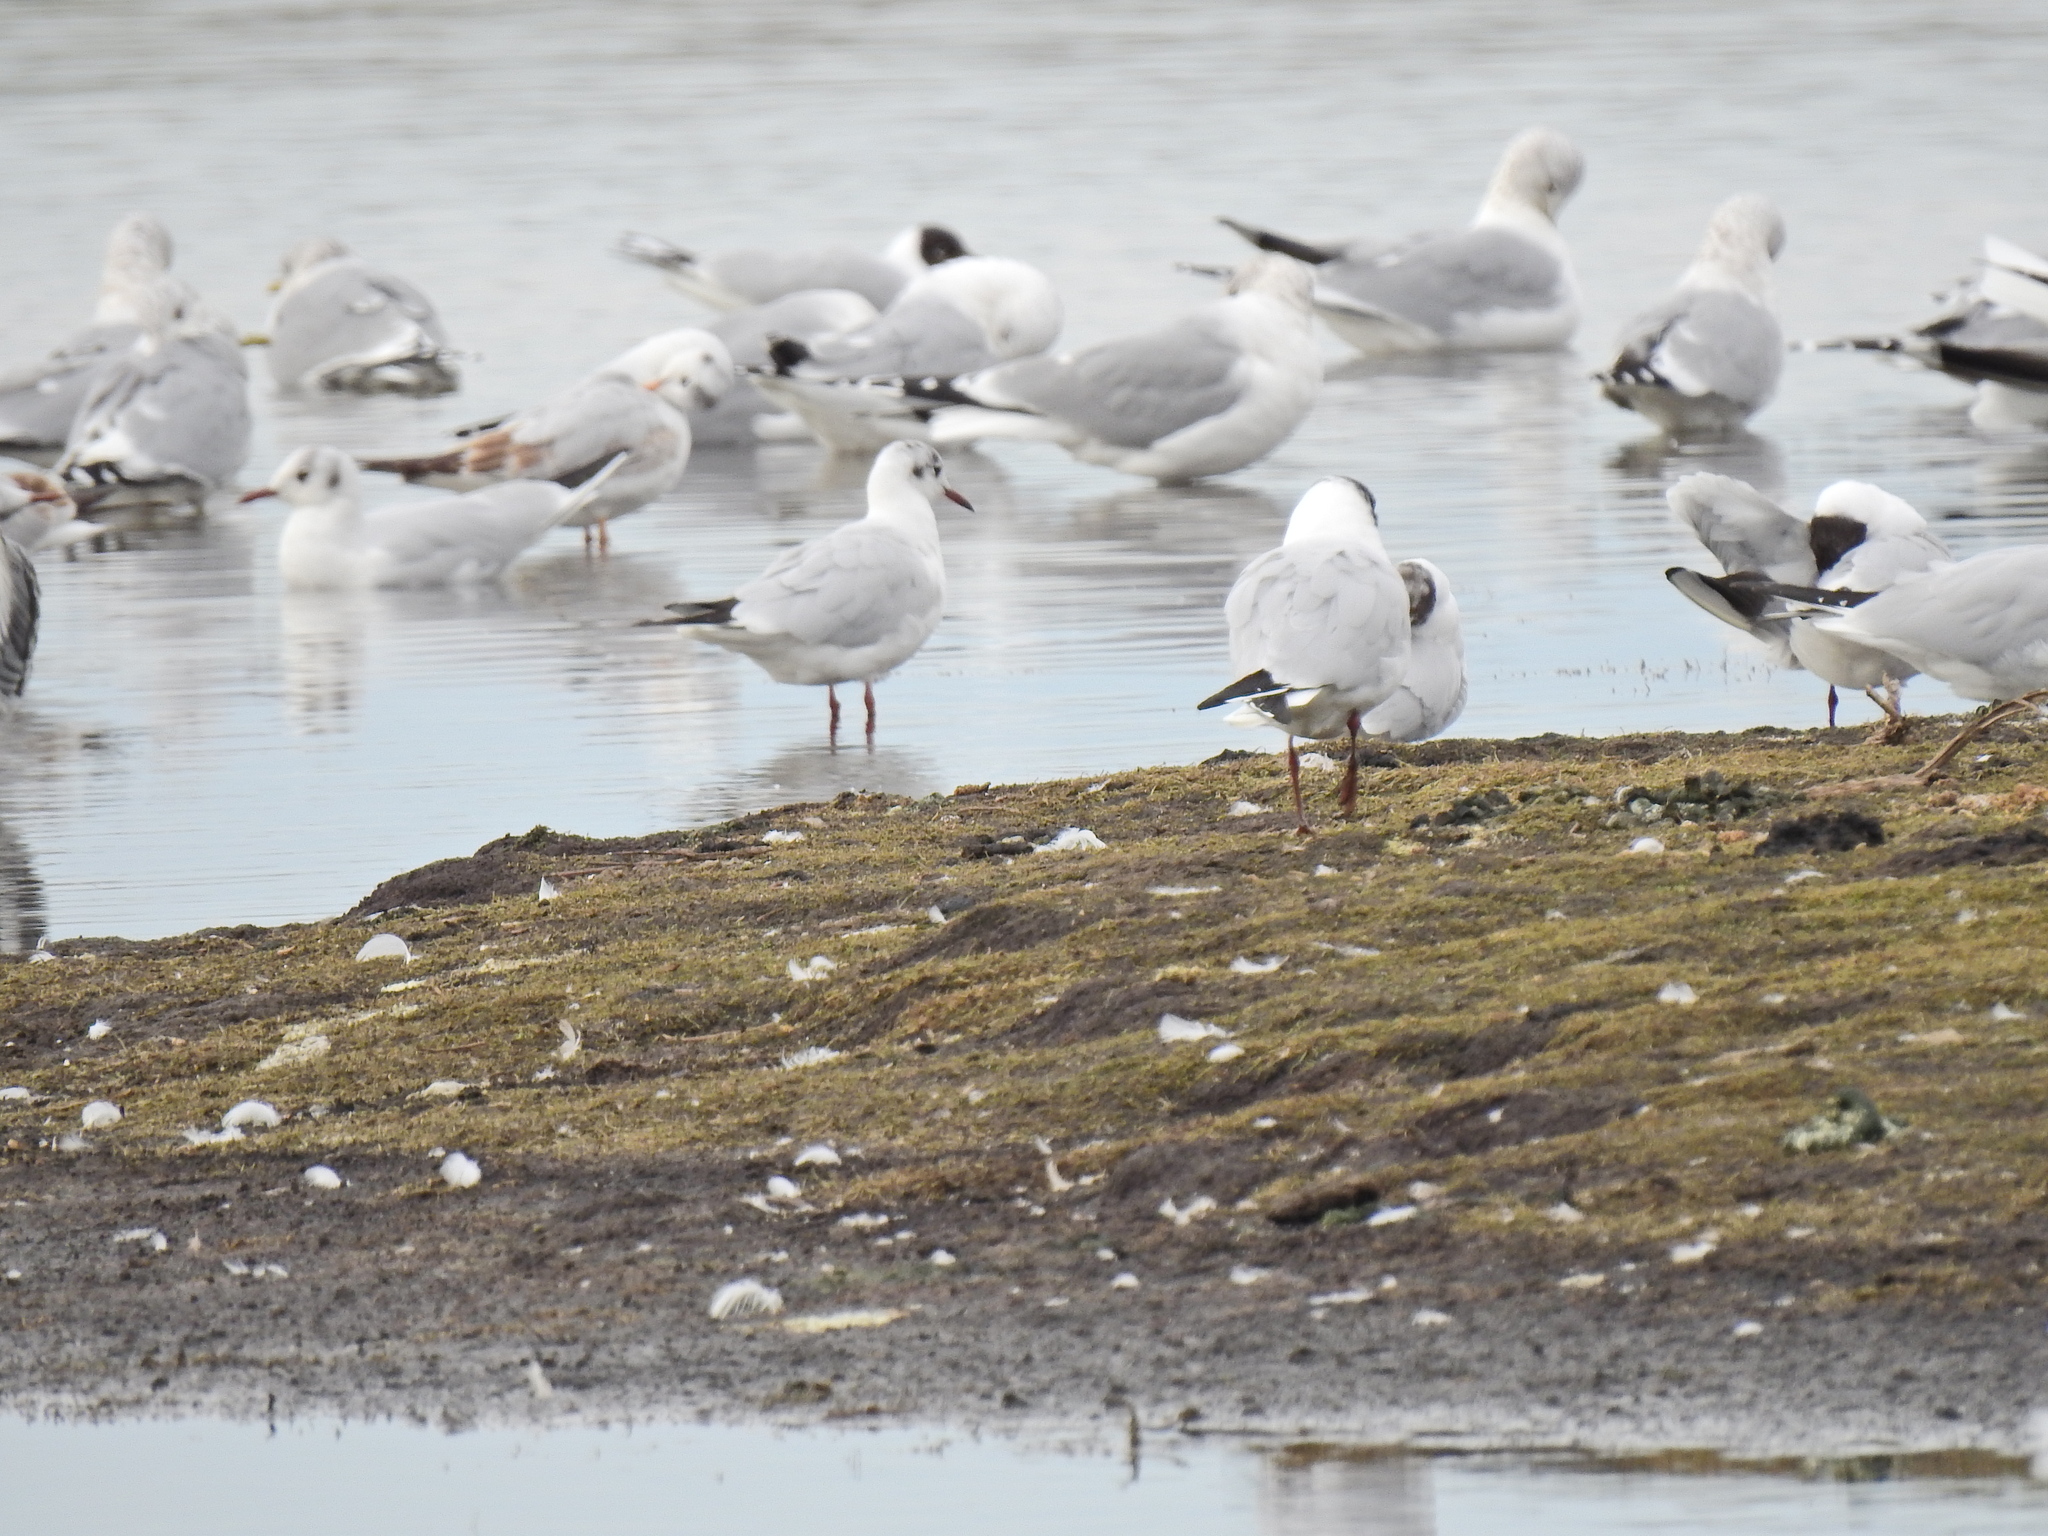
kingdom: Animalia
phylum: Chordata
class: Aves
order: Charadriiformes
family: Laridae
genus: Chroicocephalus
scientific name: Chroicocephalus ridibundus
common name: Black-headed gull
